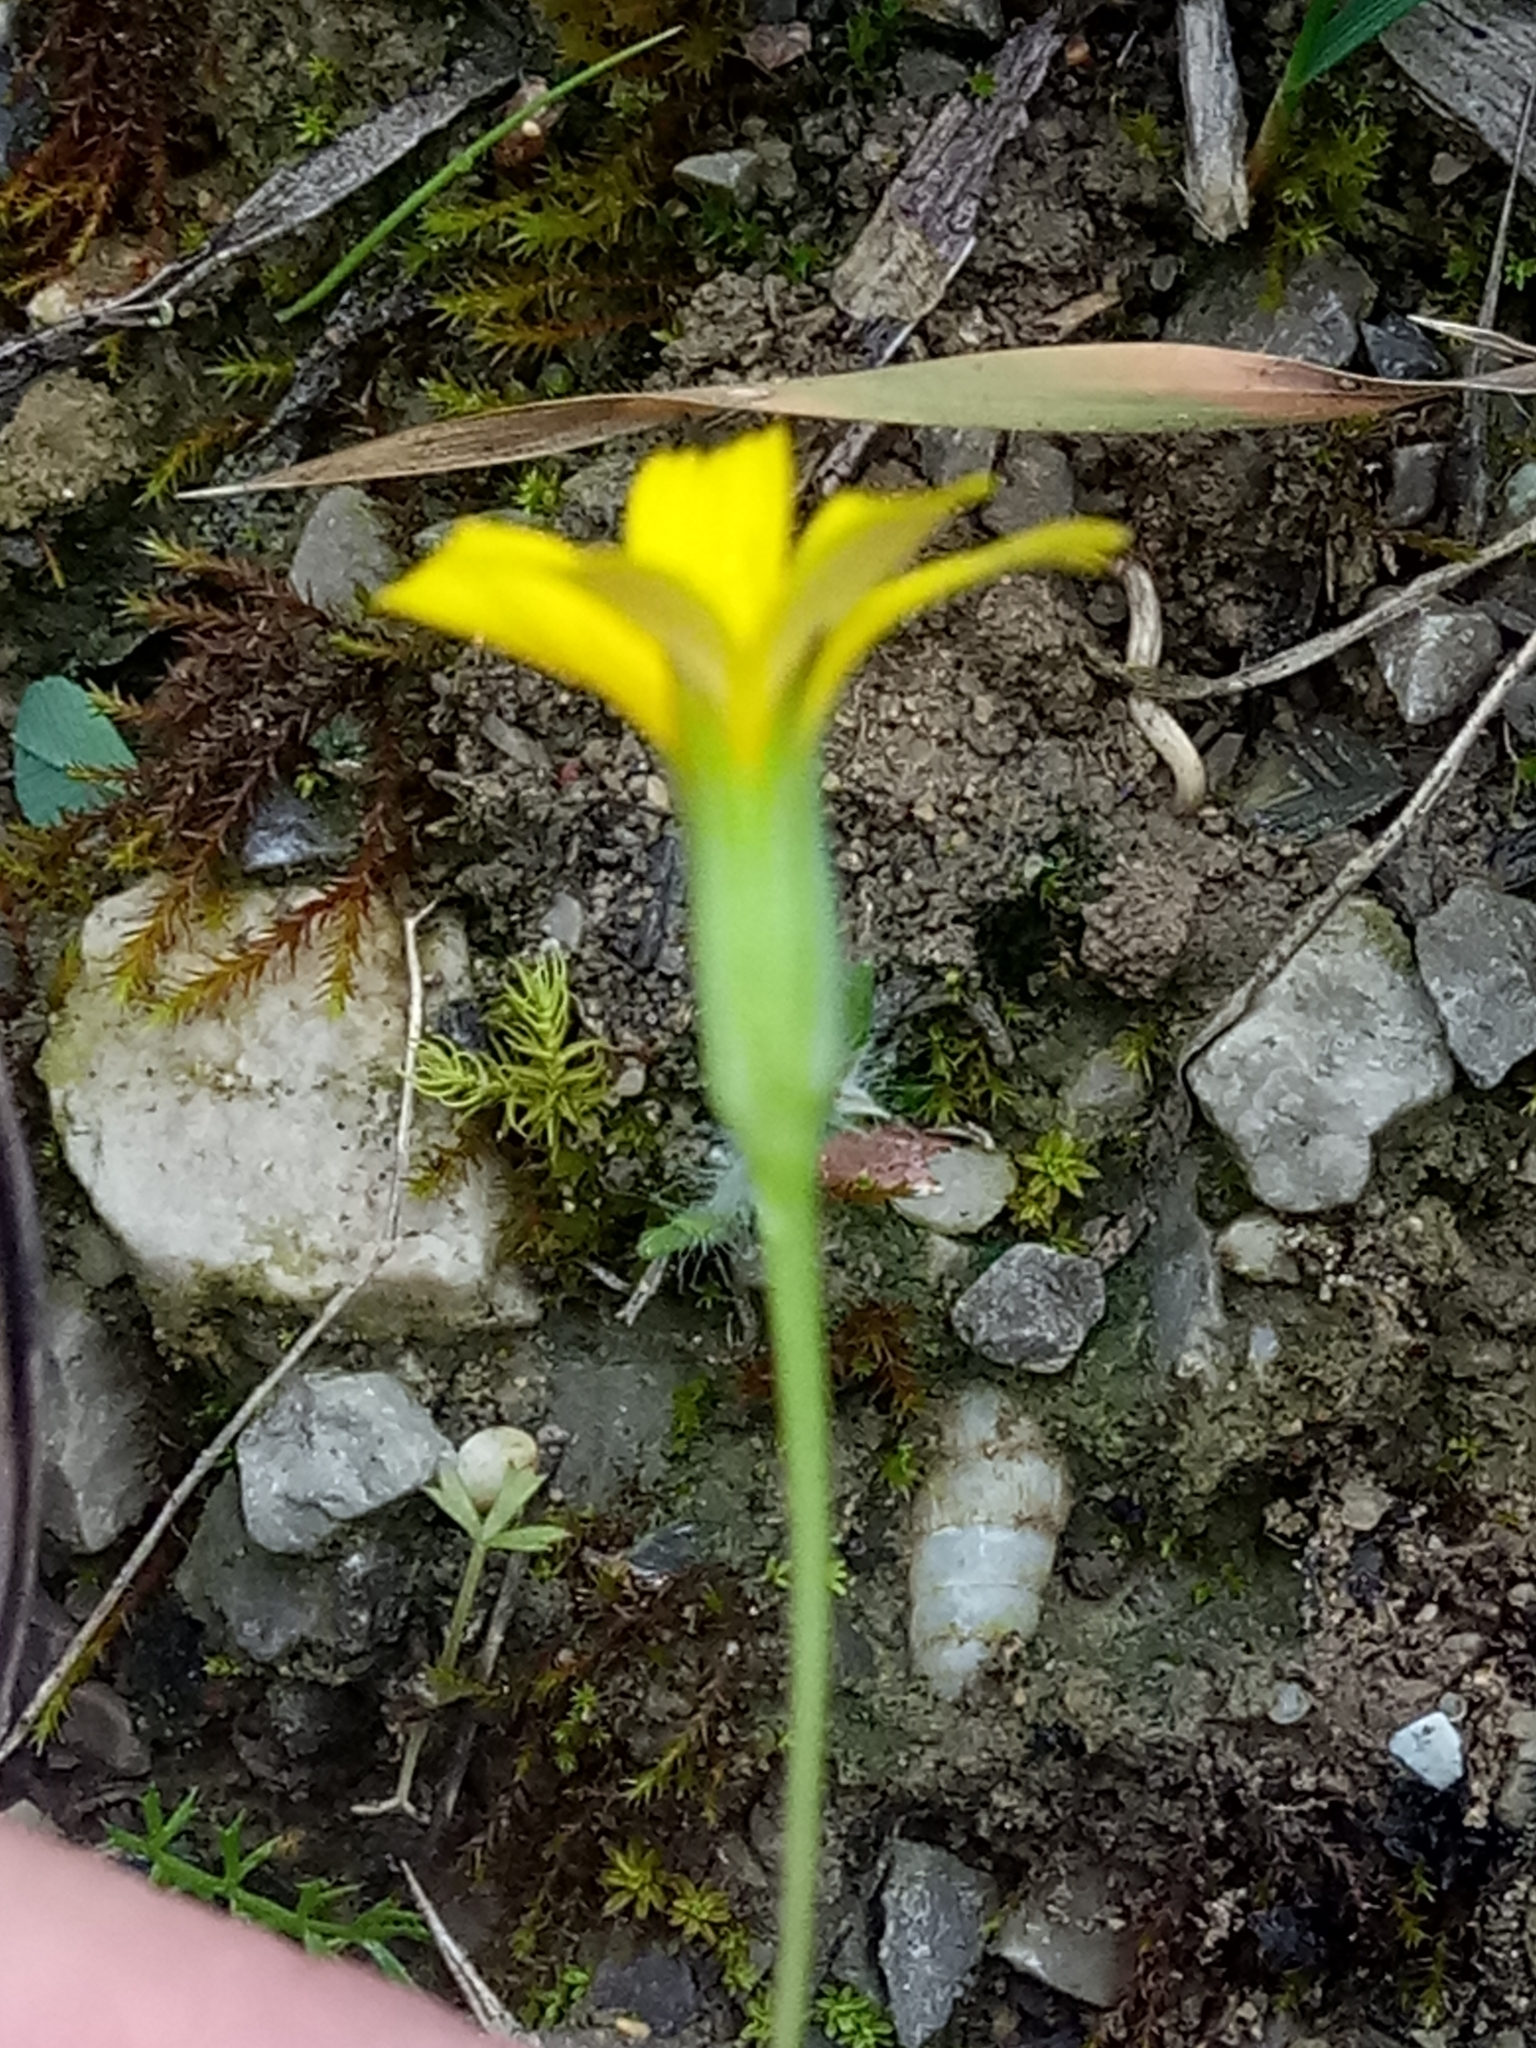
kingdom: Plantae
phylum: Tracheophyta
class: Magnoliopsida
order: Asterales
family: Asteraceae
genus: Chondrilla
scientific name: Chondrilla juncea
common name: Skeleton weed
